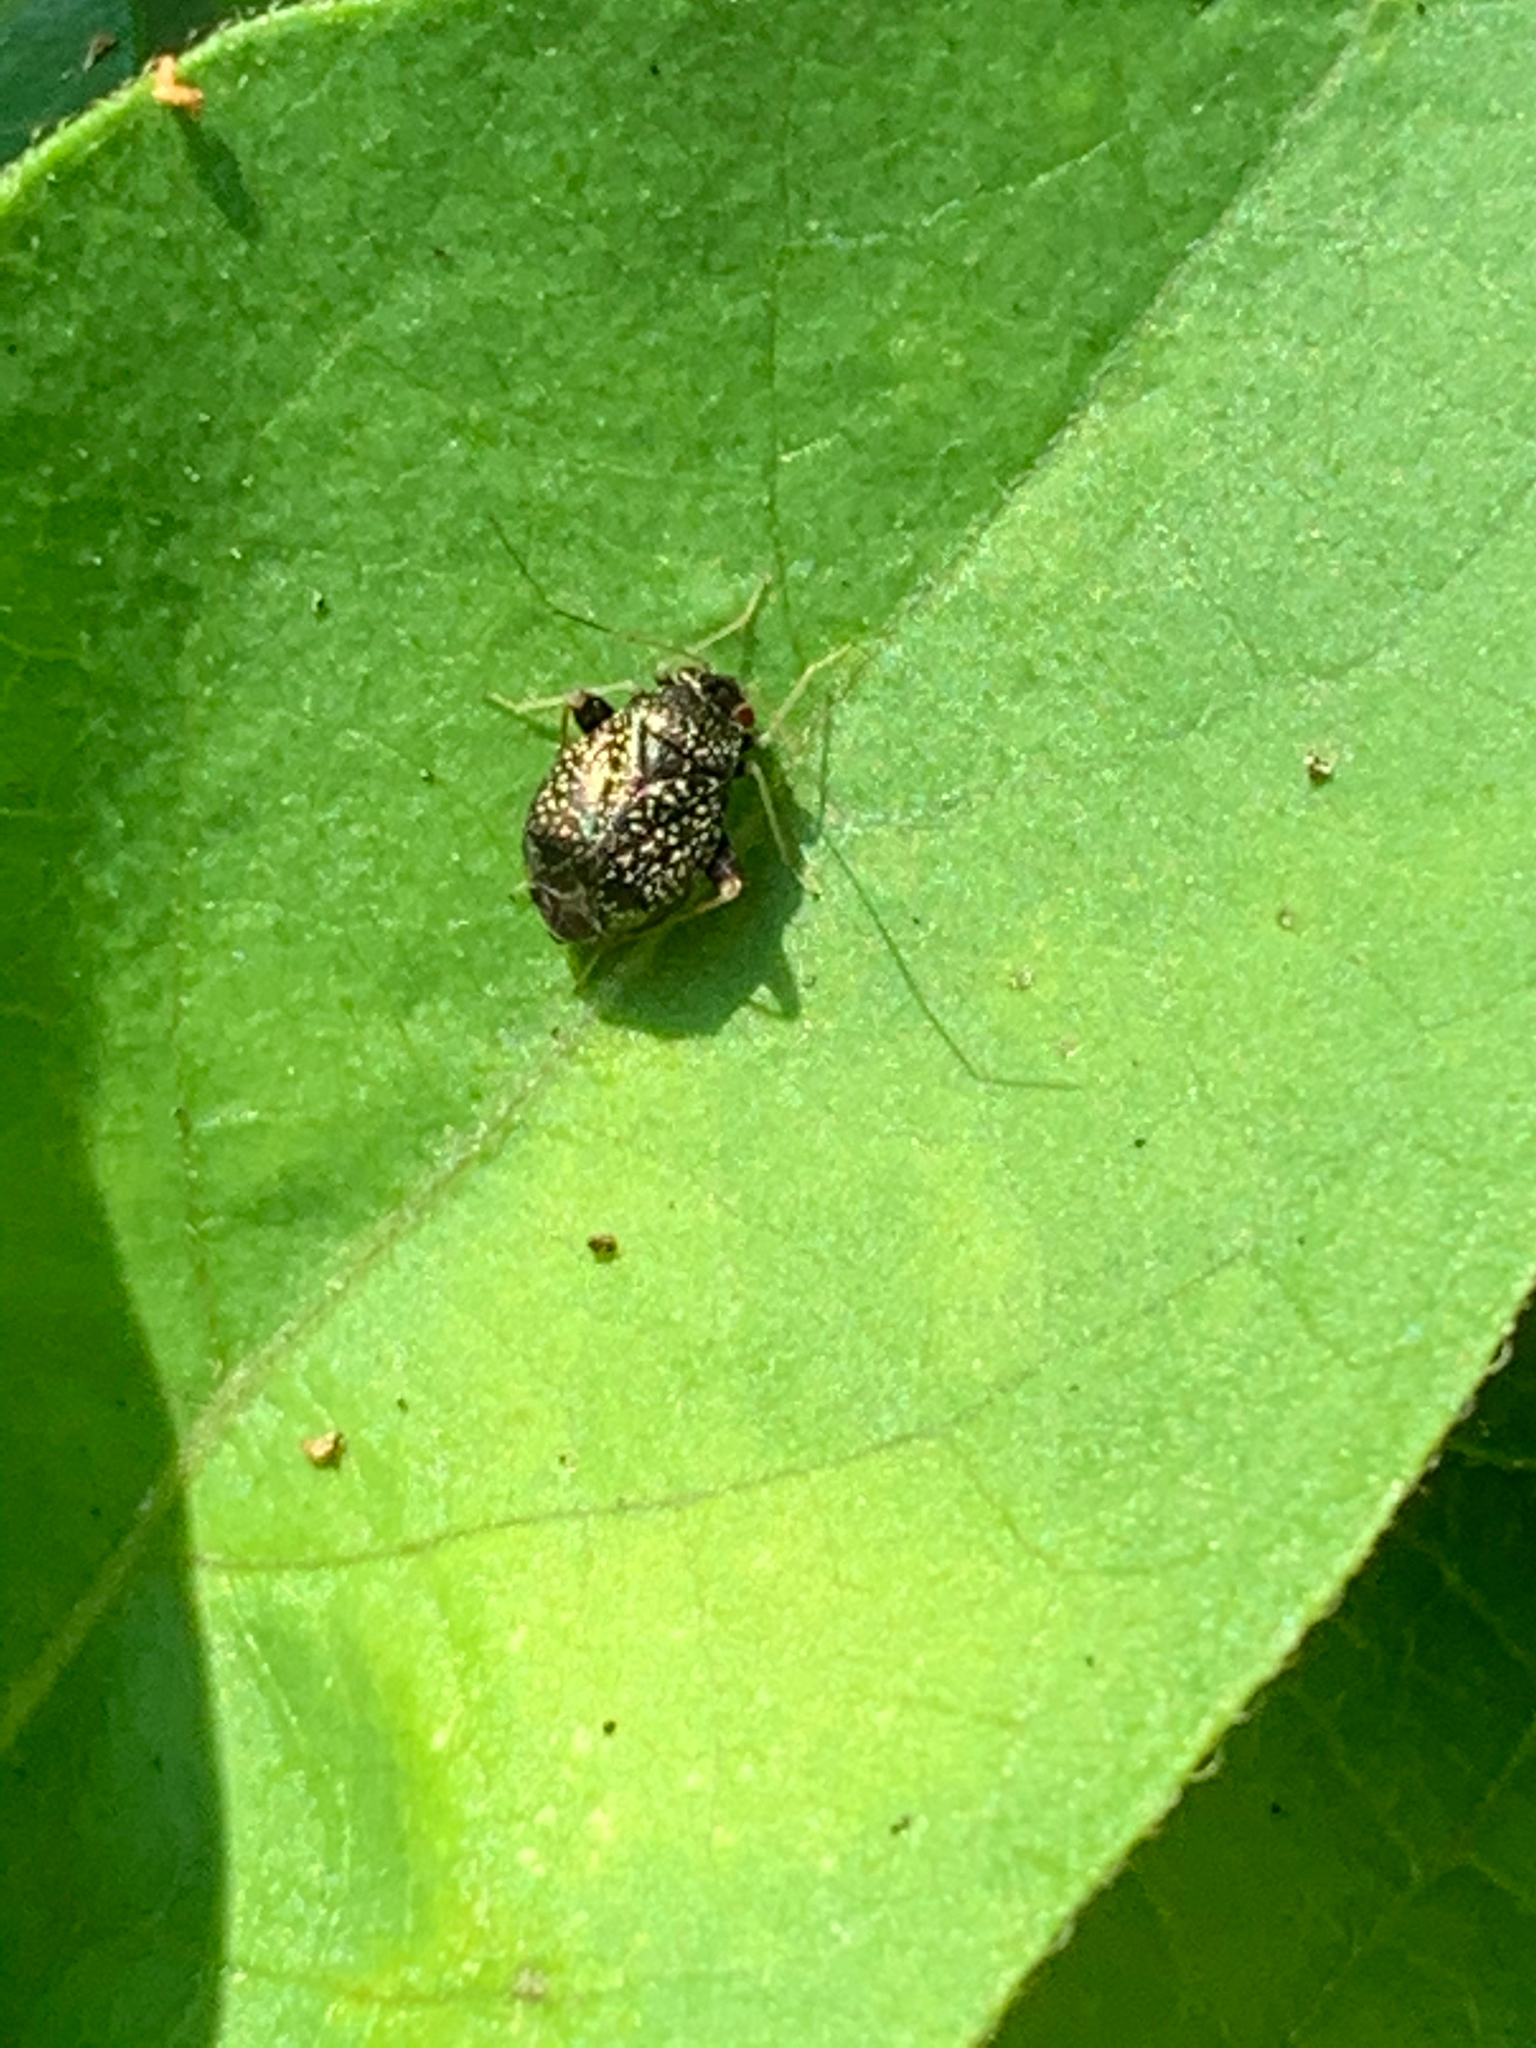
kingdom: Animalia
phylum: Arthropoda
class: Insecta
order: Hemiptera
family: Miridae
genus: Microtechnites
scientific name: Microtechnites bractatus
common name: Garden fleahopper
